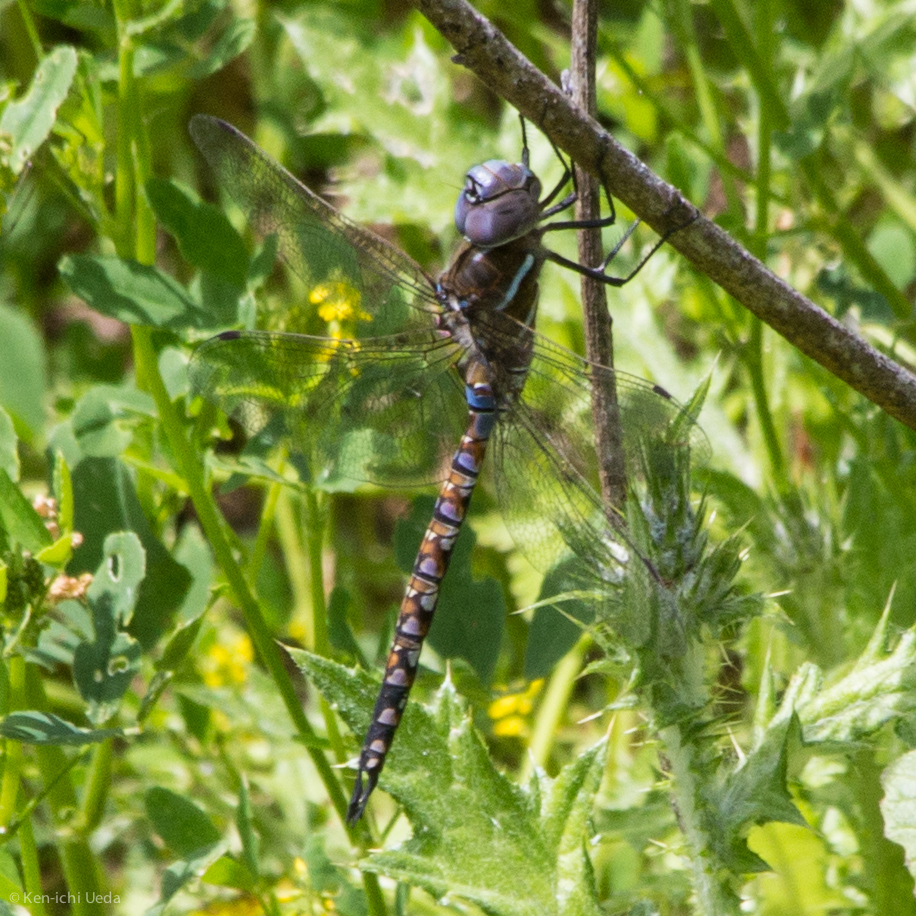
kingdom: Animalia
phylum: Arthropoda
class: Insecta
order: Odonata
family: Aeshnidae
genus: Rhionaeschna
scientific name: Rhionaeschna multicolor
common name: Blue-eyed darner
